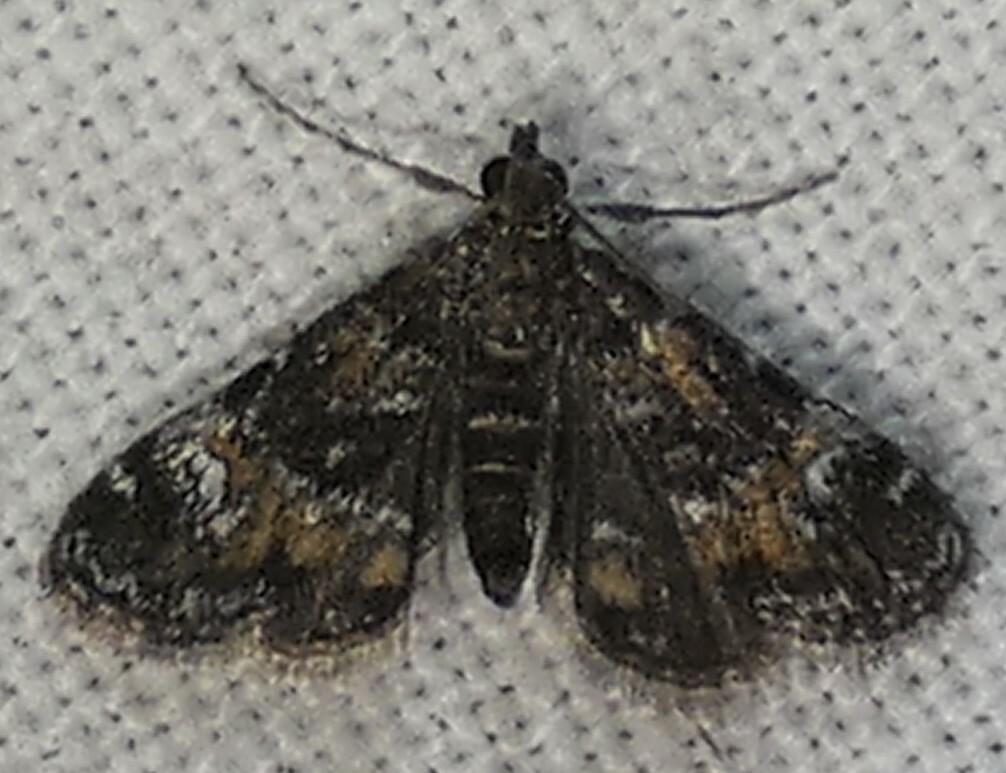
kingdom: Animalia
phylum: Arthropoda
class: Insecta
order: Lepidoptera
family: Crambidae
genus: Elophila
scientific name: Elophila obliteralis
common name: Waterlily leafcutter moth
